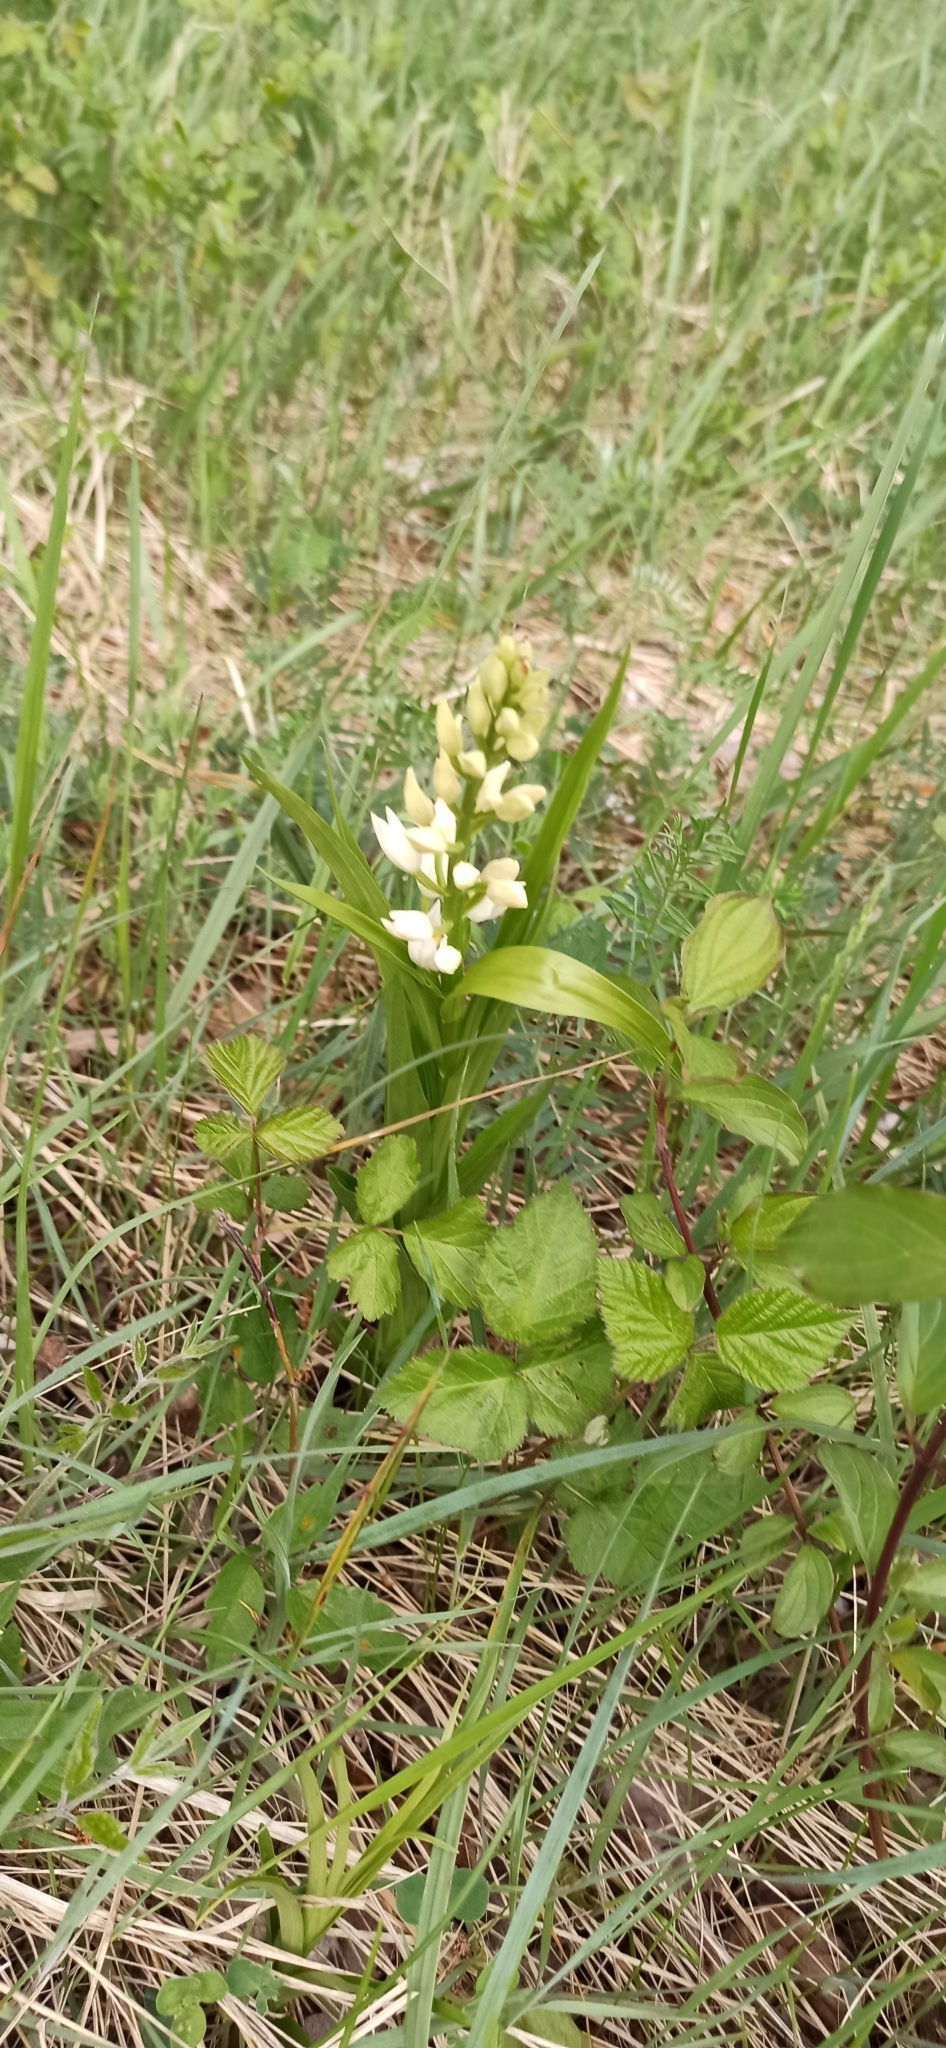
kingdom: Plantae
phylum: Tracheophyta
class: Liliopsida
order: Asparagales
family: Orchidaceae
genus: Cephalanthera
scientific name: Cephalanthera longifolia
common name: Narrow-leaved helleborine
